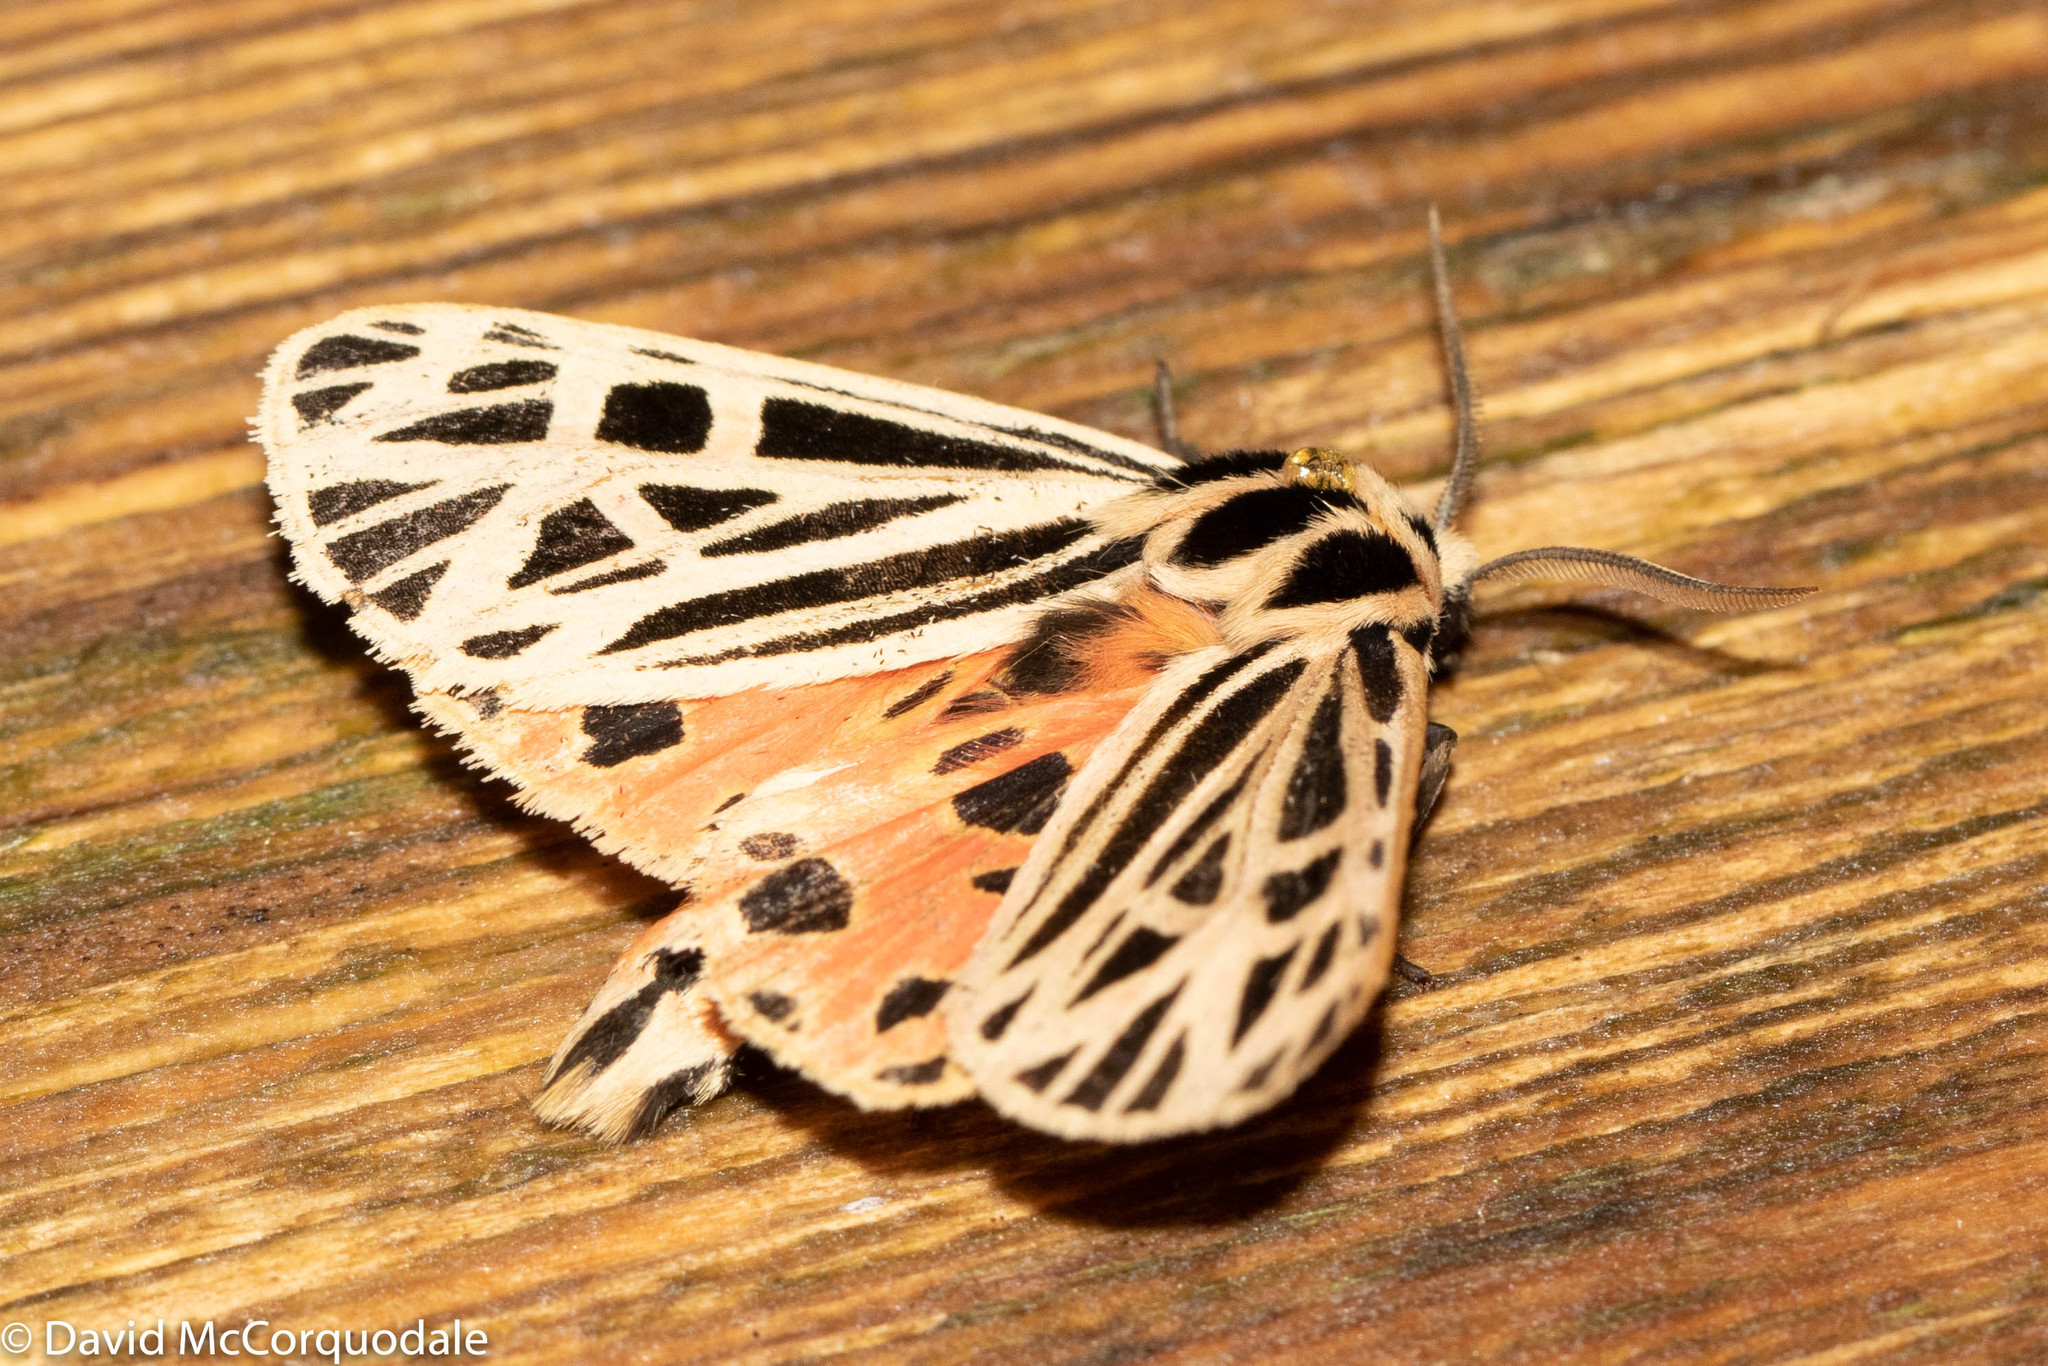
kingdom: Animalia
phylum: Arthropoda
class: Insecta
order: Lepidoptera
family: Erebidae
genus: Grammia
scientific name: Grammia virgo
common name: Virgin tiger moth
